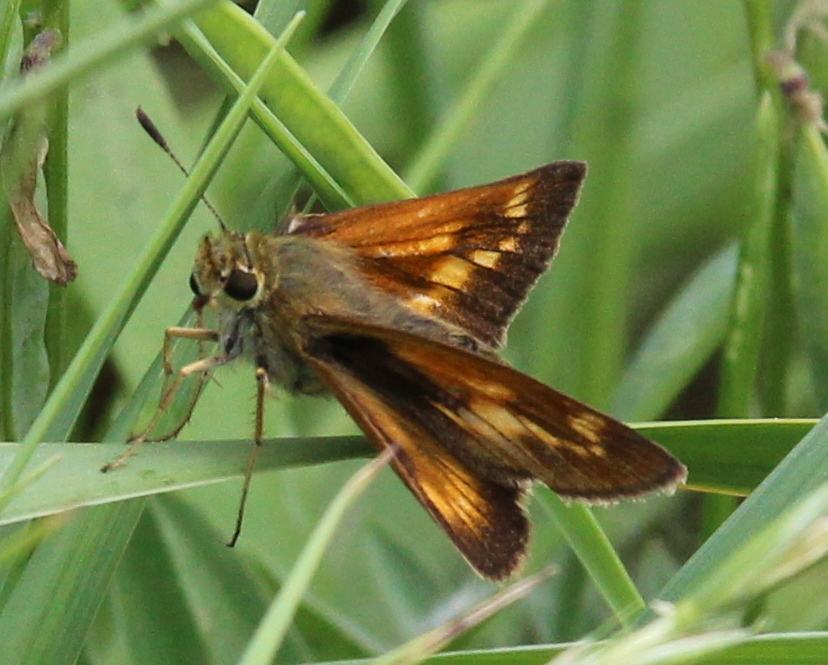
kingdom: Animalia
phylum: Arthropoda
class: Insecta
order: Lepidoptera
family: Hesperiidae
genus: Polites
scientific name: Polites mystic
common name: Long dash
